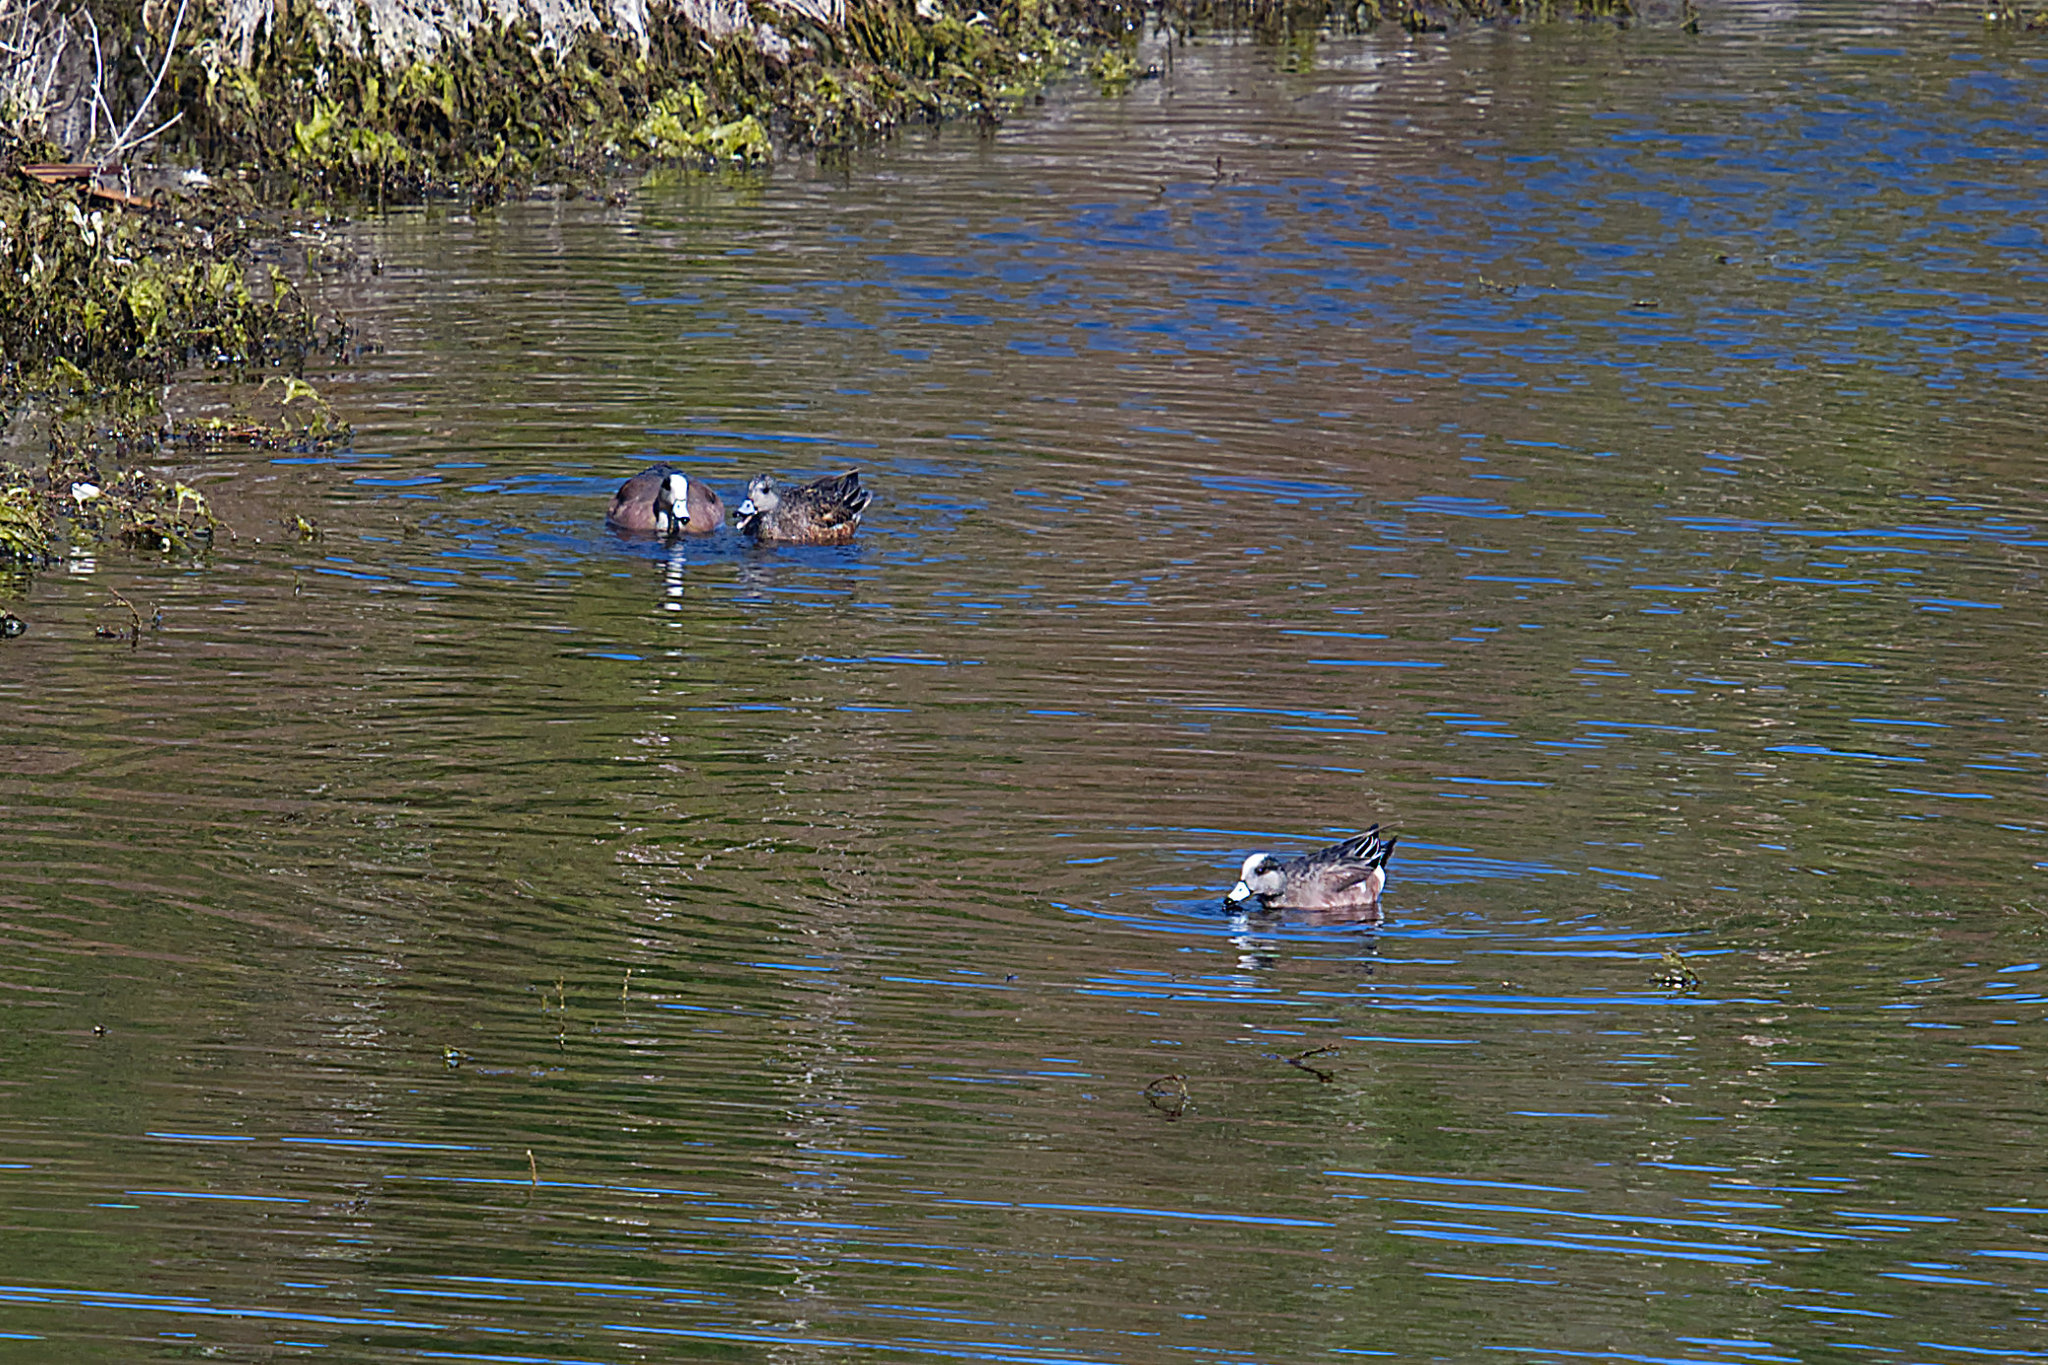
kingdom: Animalia
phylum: Chordata
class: Aves
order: Anseriformes
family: Anatidae
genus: Mareca
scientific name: Mareca americana
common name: American wigeon
